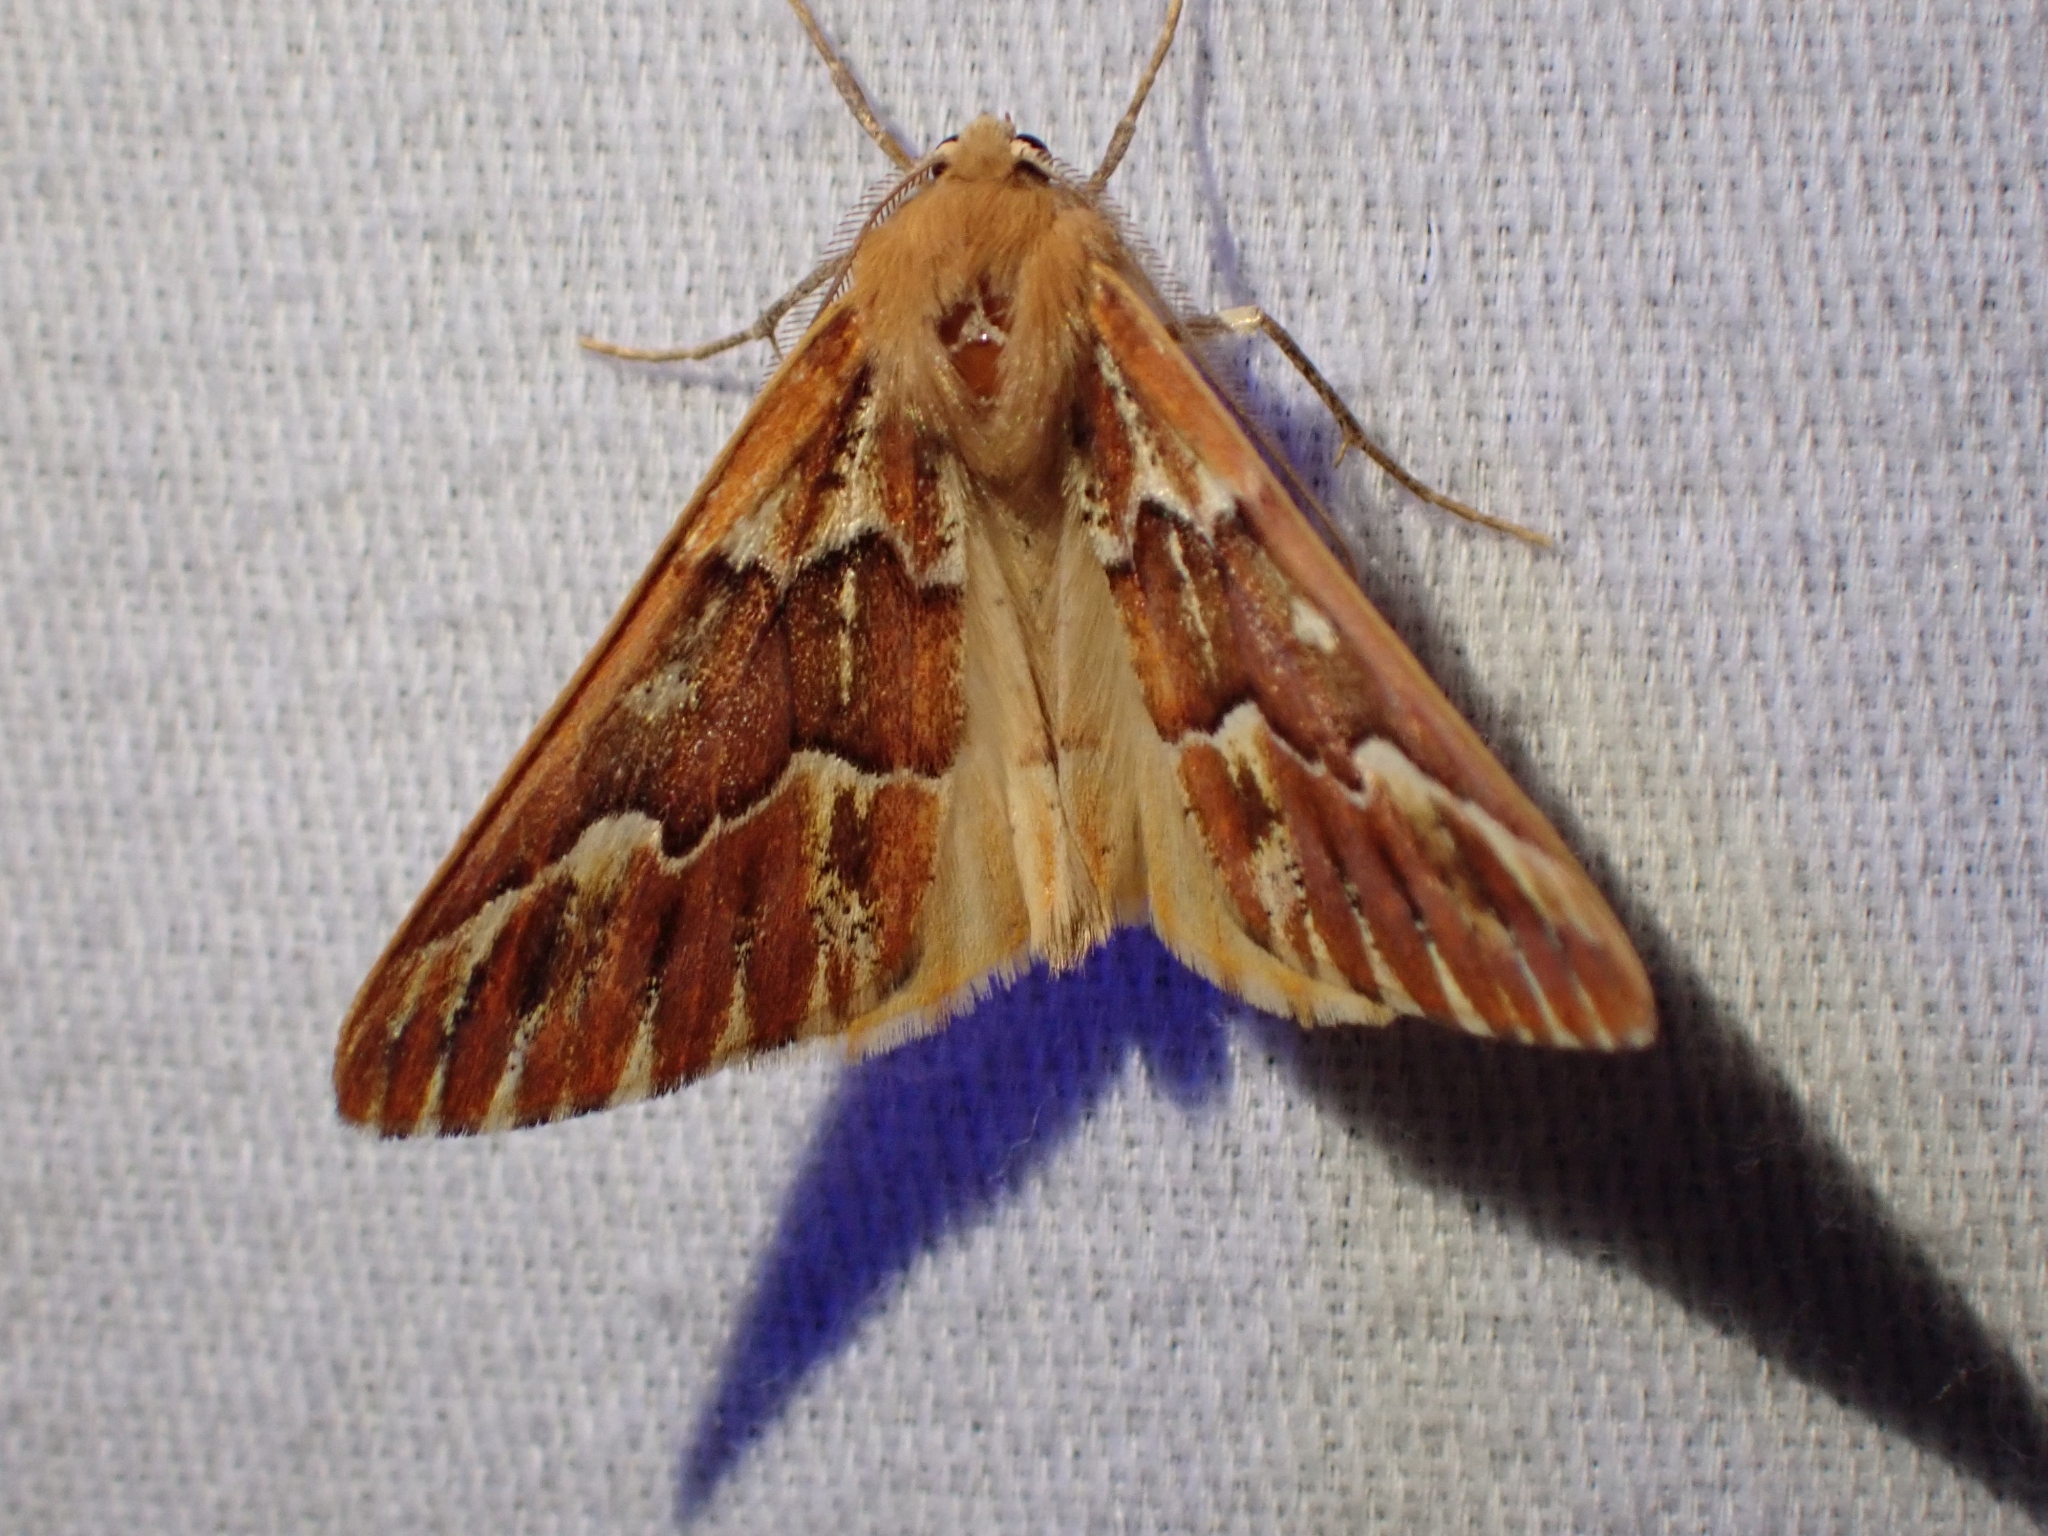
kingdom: Animalia
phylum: Arthropoda
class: Insecta
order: Lepidoptera
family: Geometridae
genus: Caripeta
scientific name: Caripeta aequaliaria
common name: Red girdle moth
